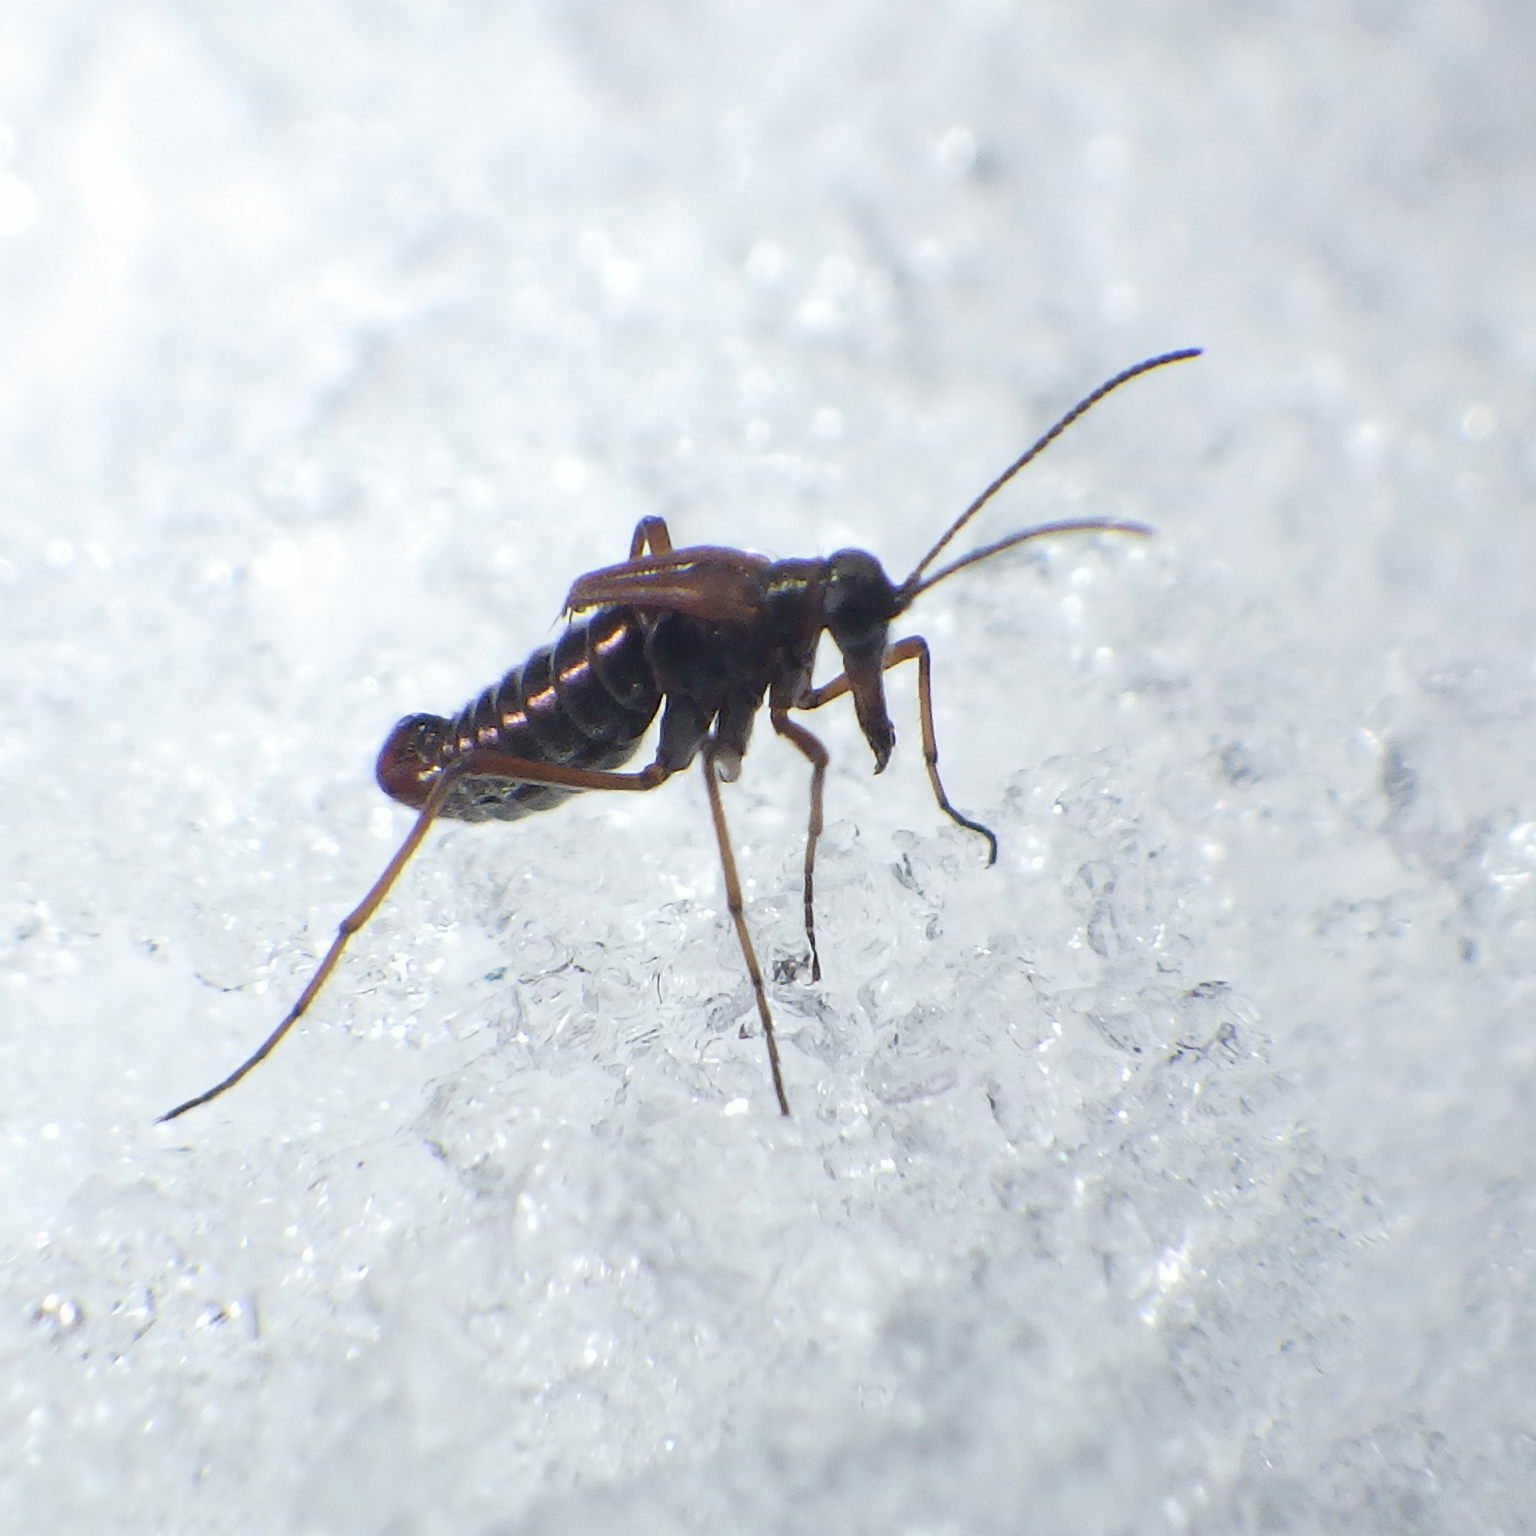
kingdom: Animalia
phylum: Arthropoda
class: Insecta
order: Mecoptera
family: Boreidae
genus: Boreus
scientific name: Boreus nivoriundus
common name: Snow-born boreus
